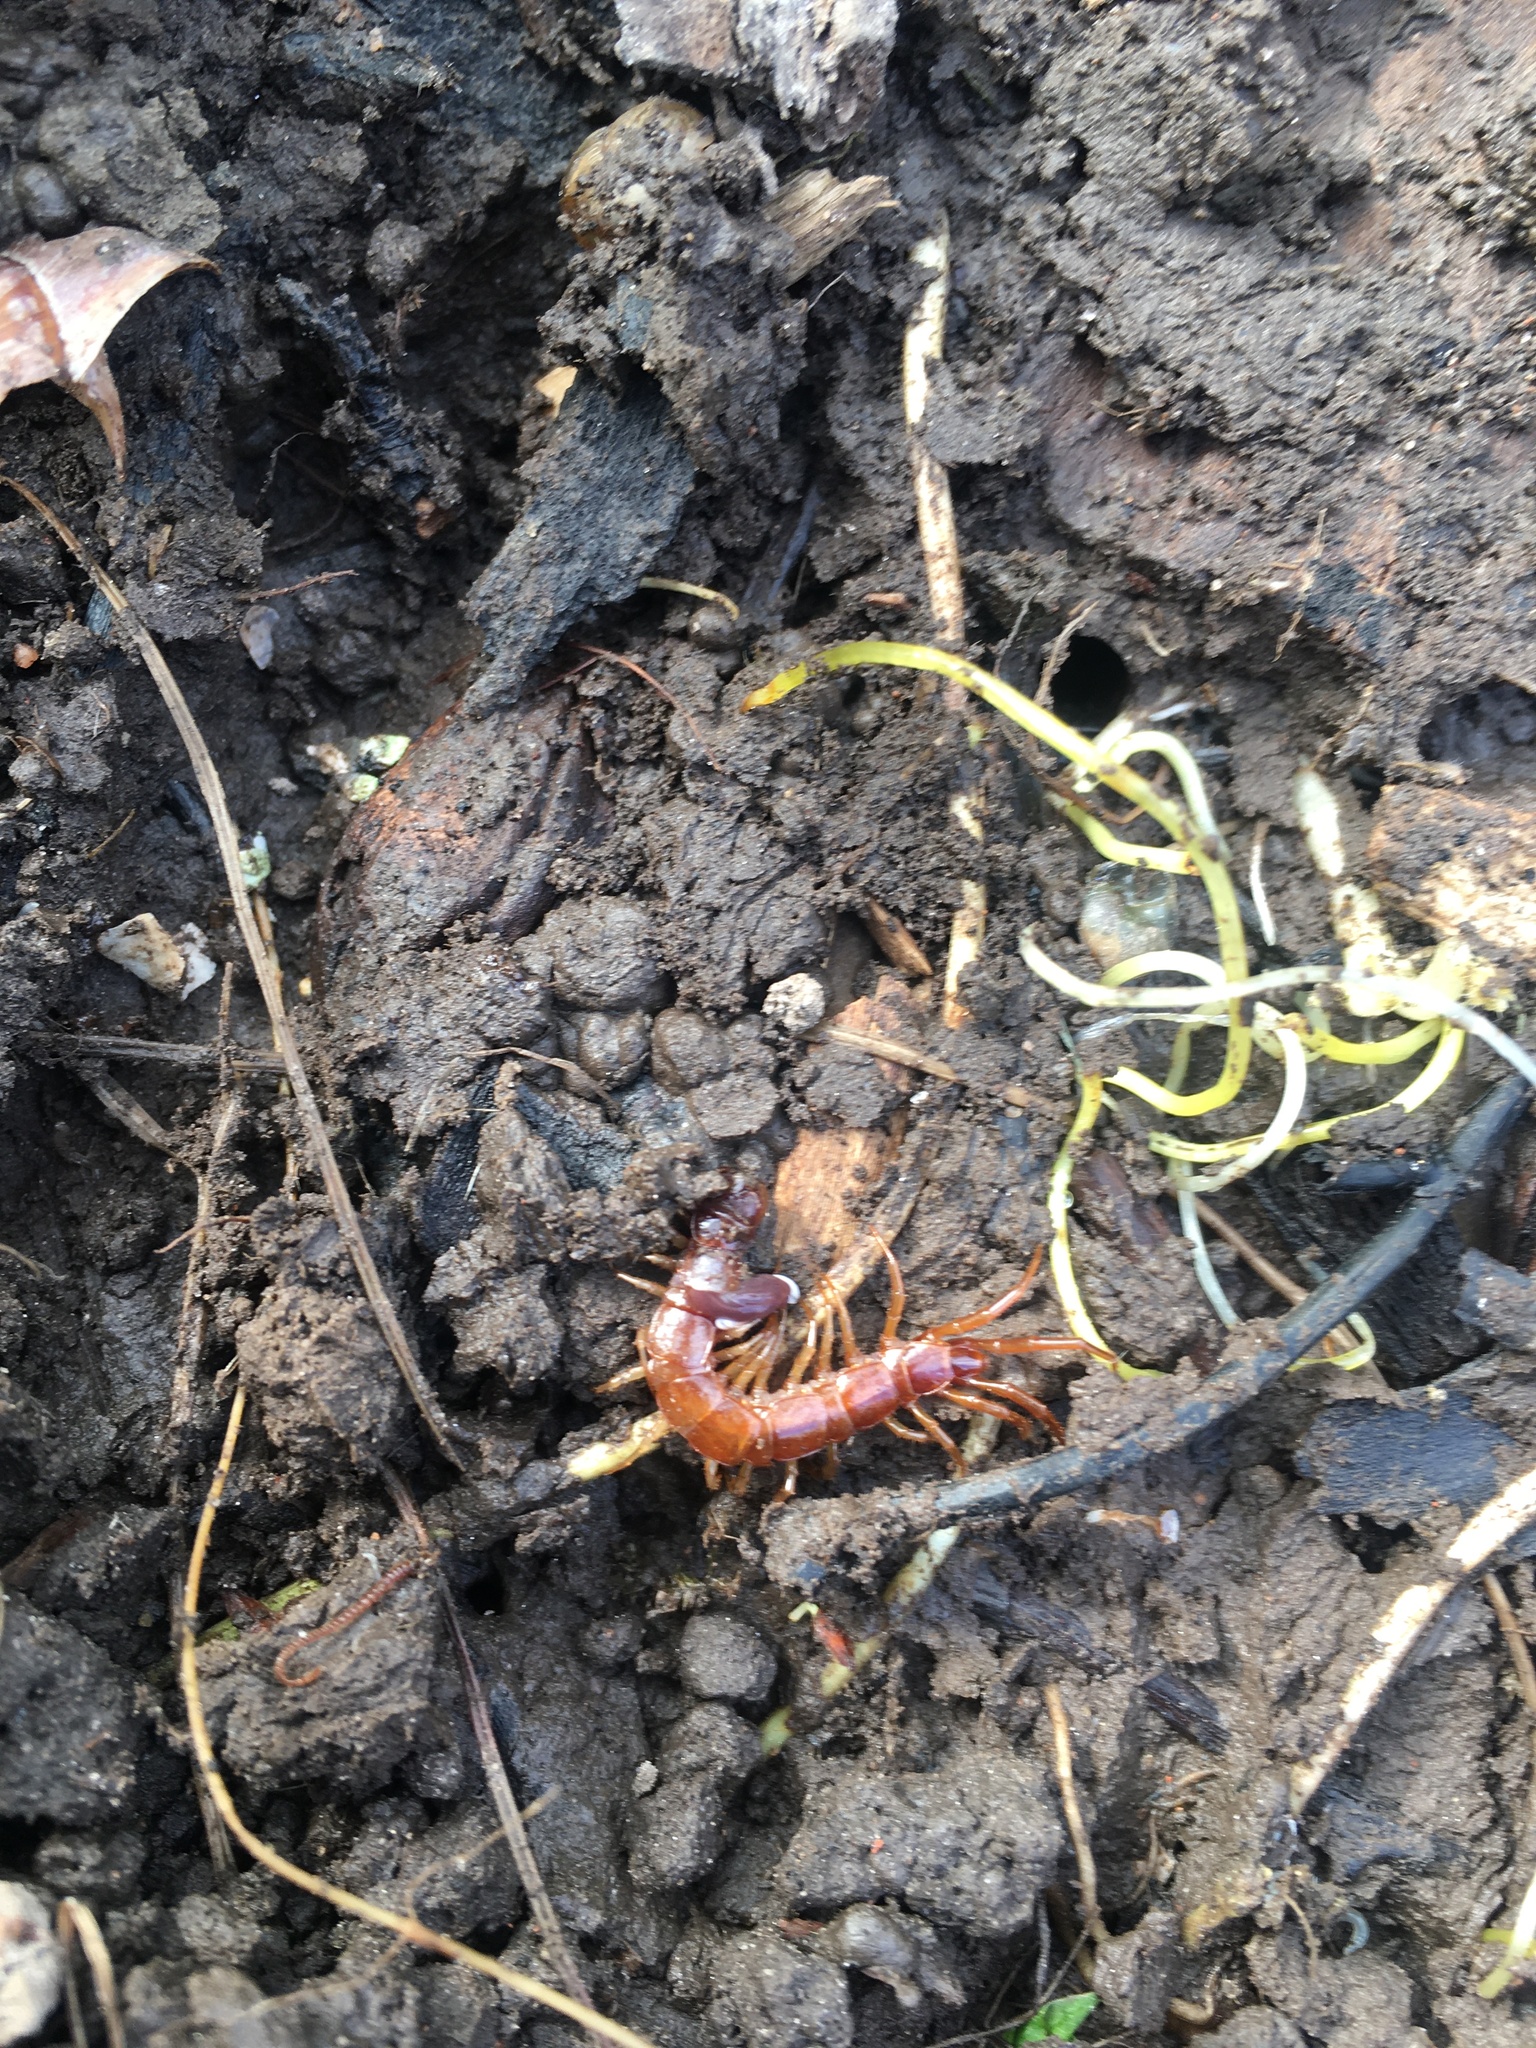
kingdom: Animalia
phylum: Arthropoda
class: Chilopoda
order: Lithobiomorpha
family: Lithobiidae
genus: Lithobius
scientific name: Lithobius forficatus
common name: Centipede
